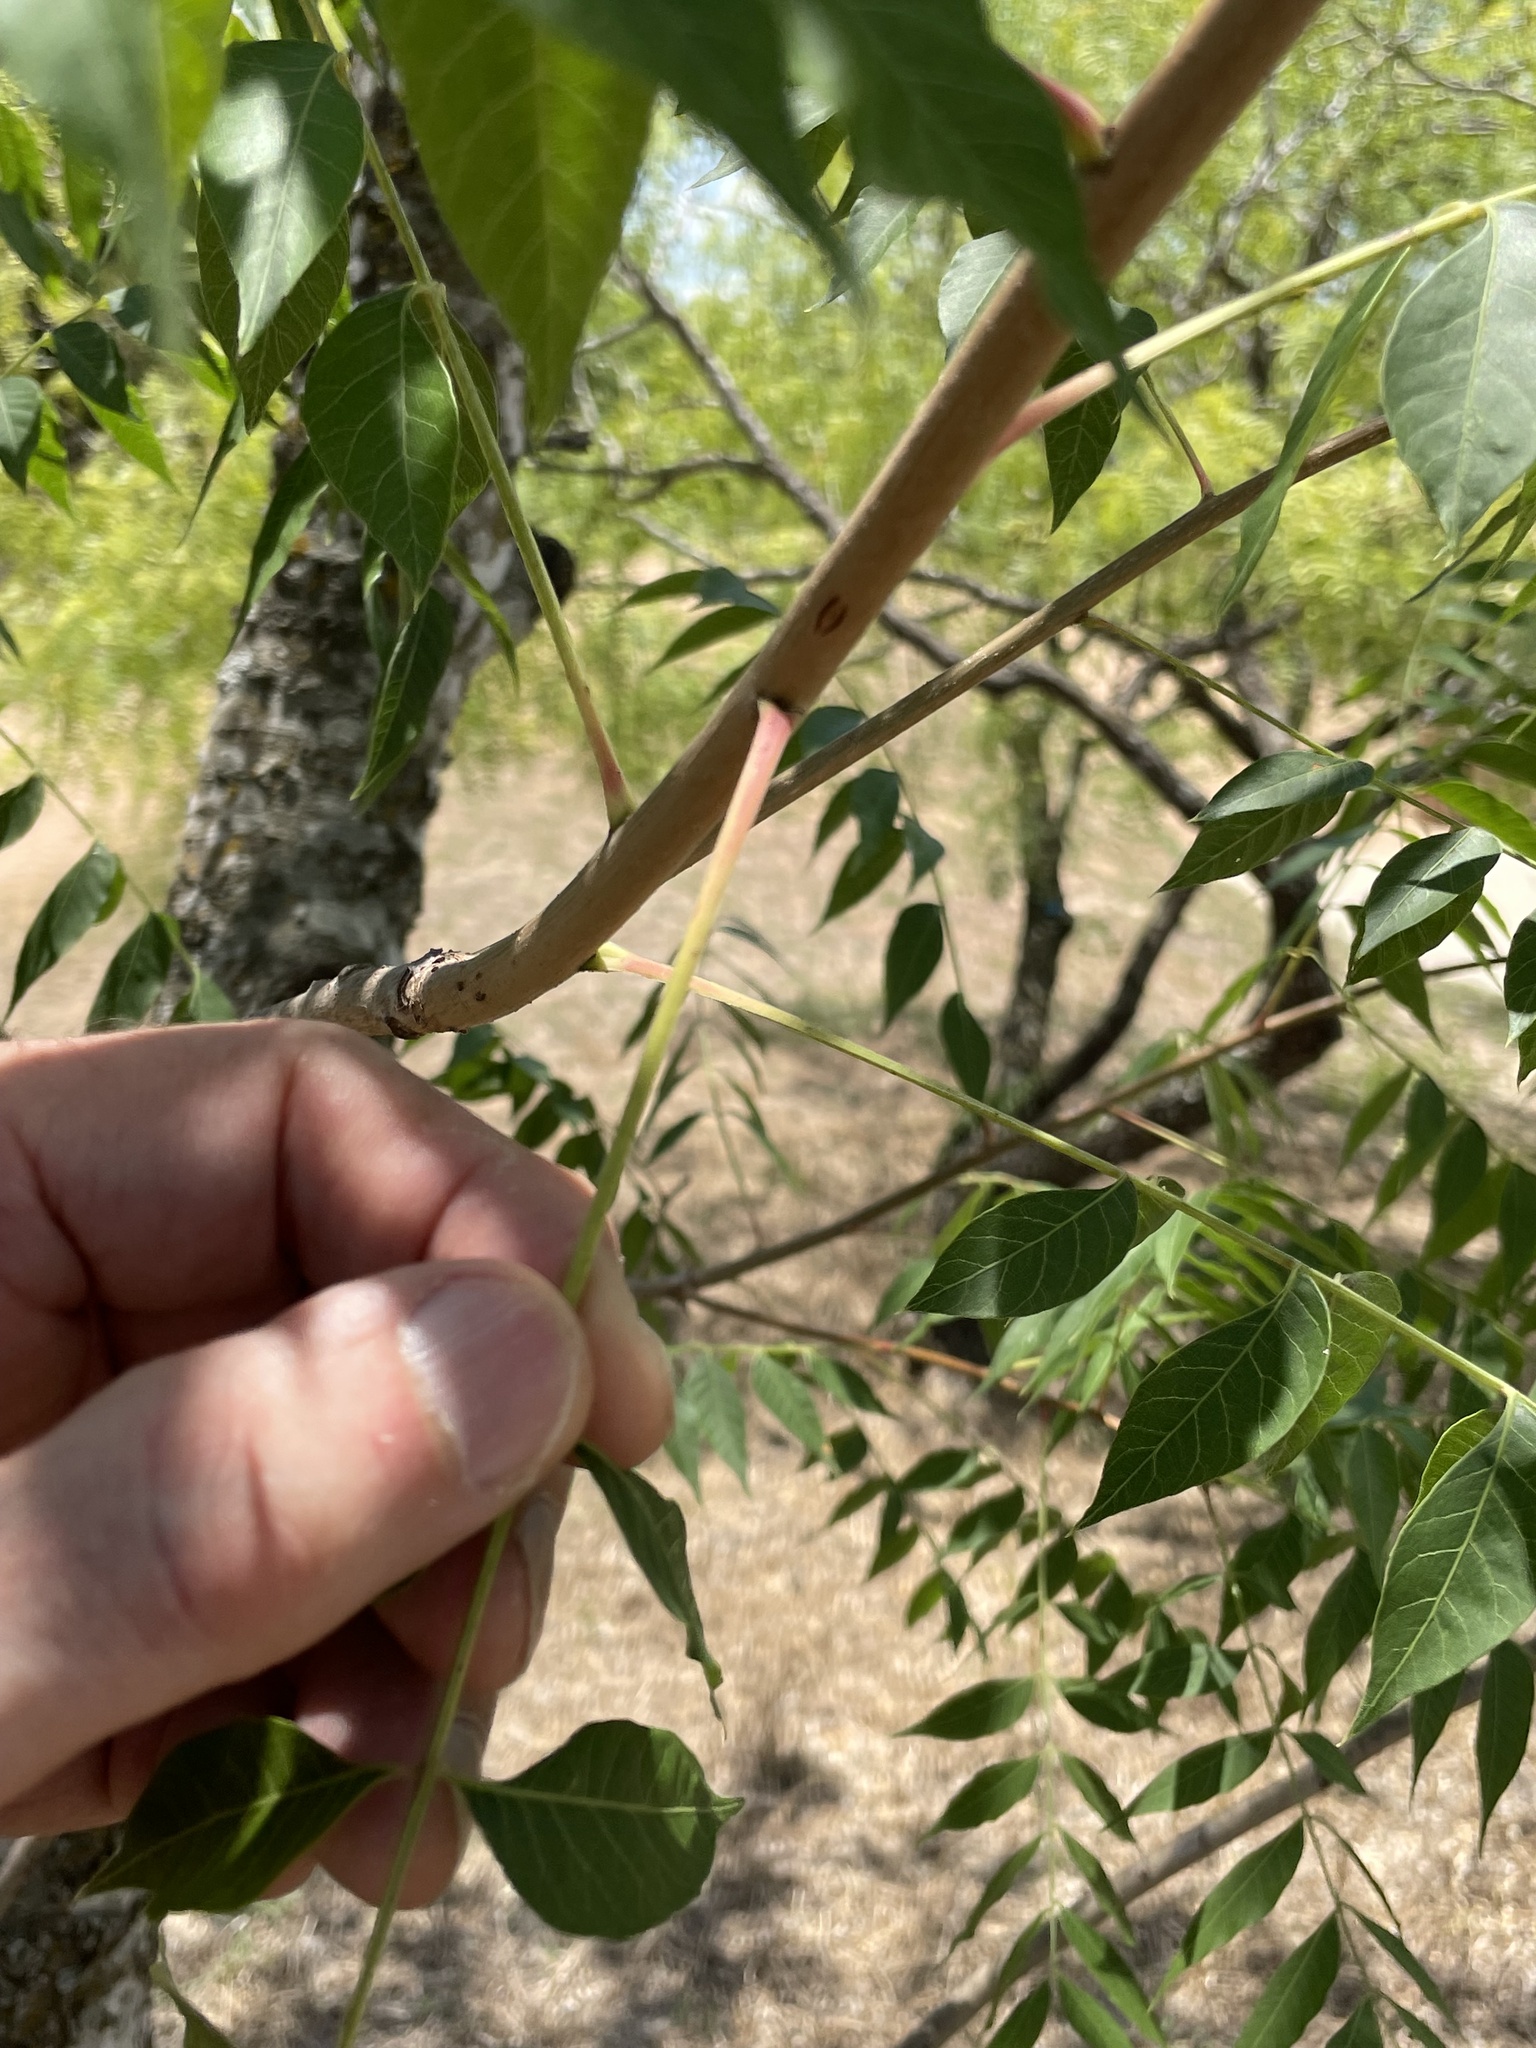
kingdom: Plantae
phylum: Tracheophyta
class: Magnoliopsida
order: Sapindales
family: Anacardiaceae
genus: Pistacia
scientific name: Pistacia chinensis
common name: Chinese pistache
